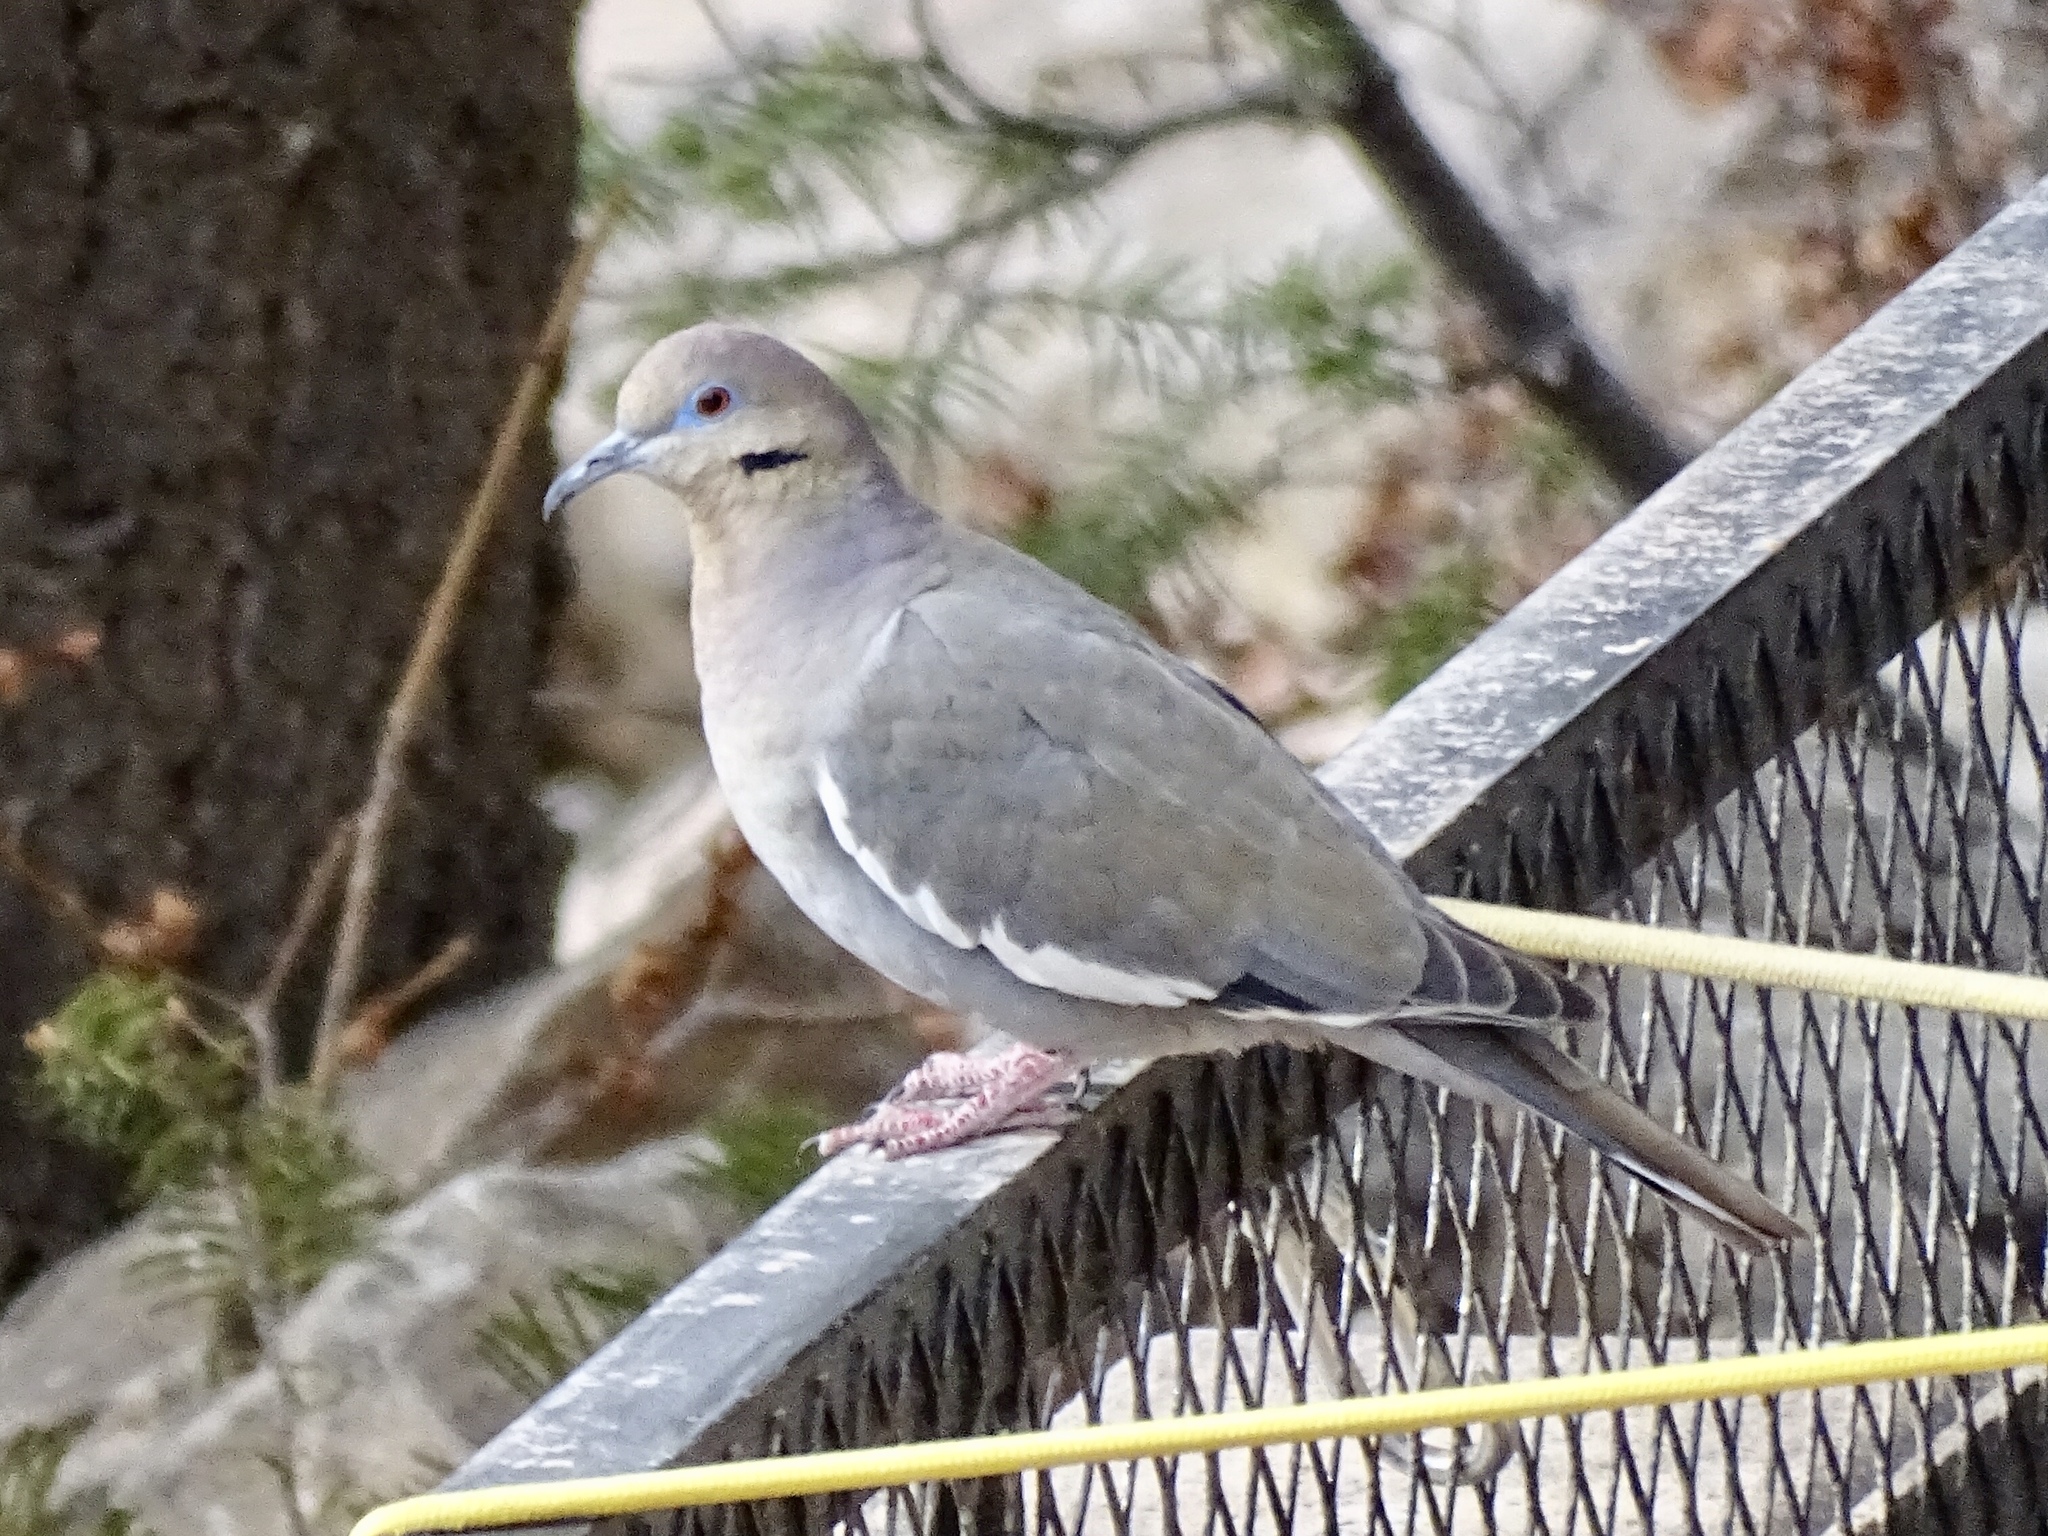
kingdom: Animalia
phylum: Chordata
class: Aves
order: Columbiformes
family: Columbidae
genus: Zenaida
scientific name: Zenaida asiatica
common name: White-winged dove
